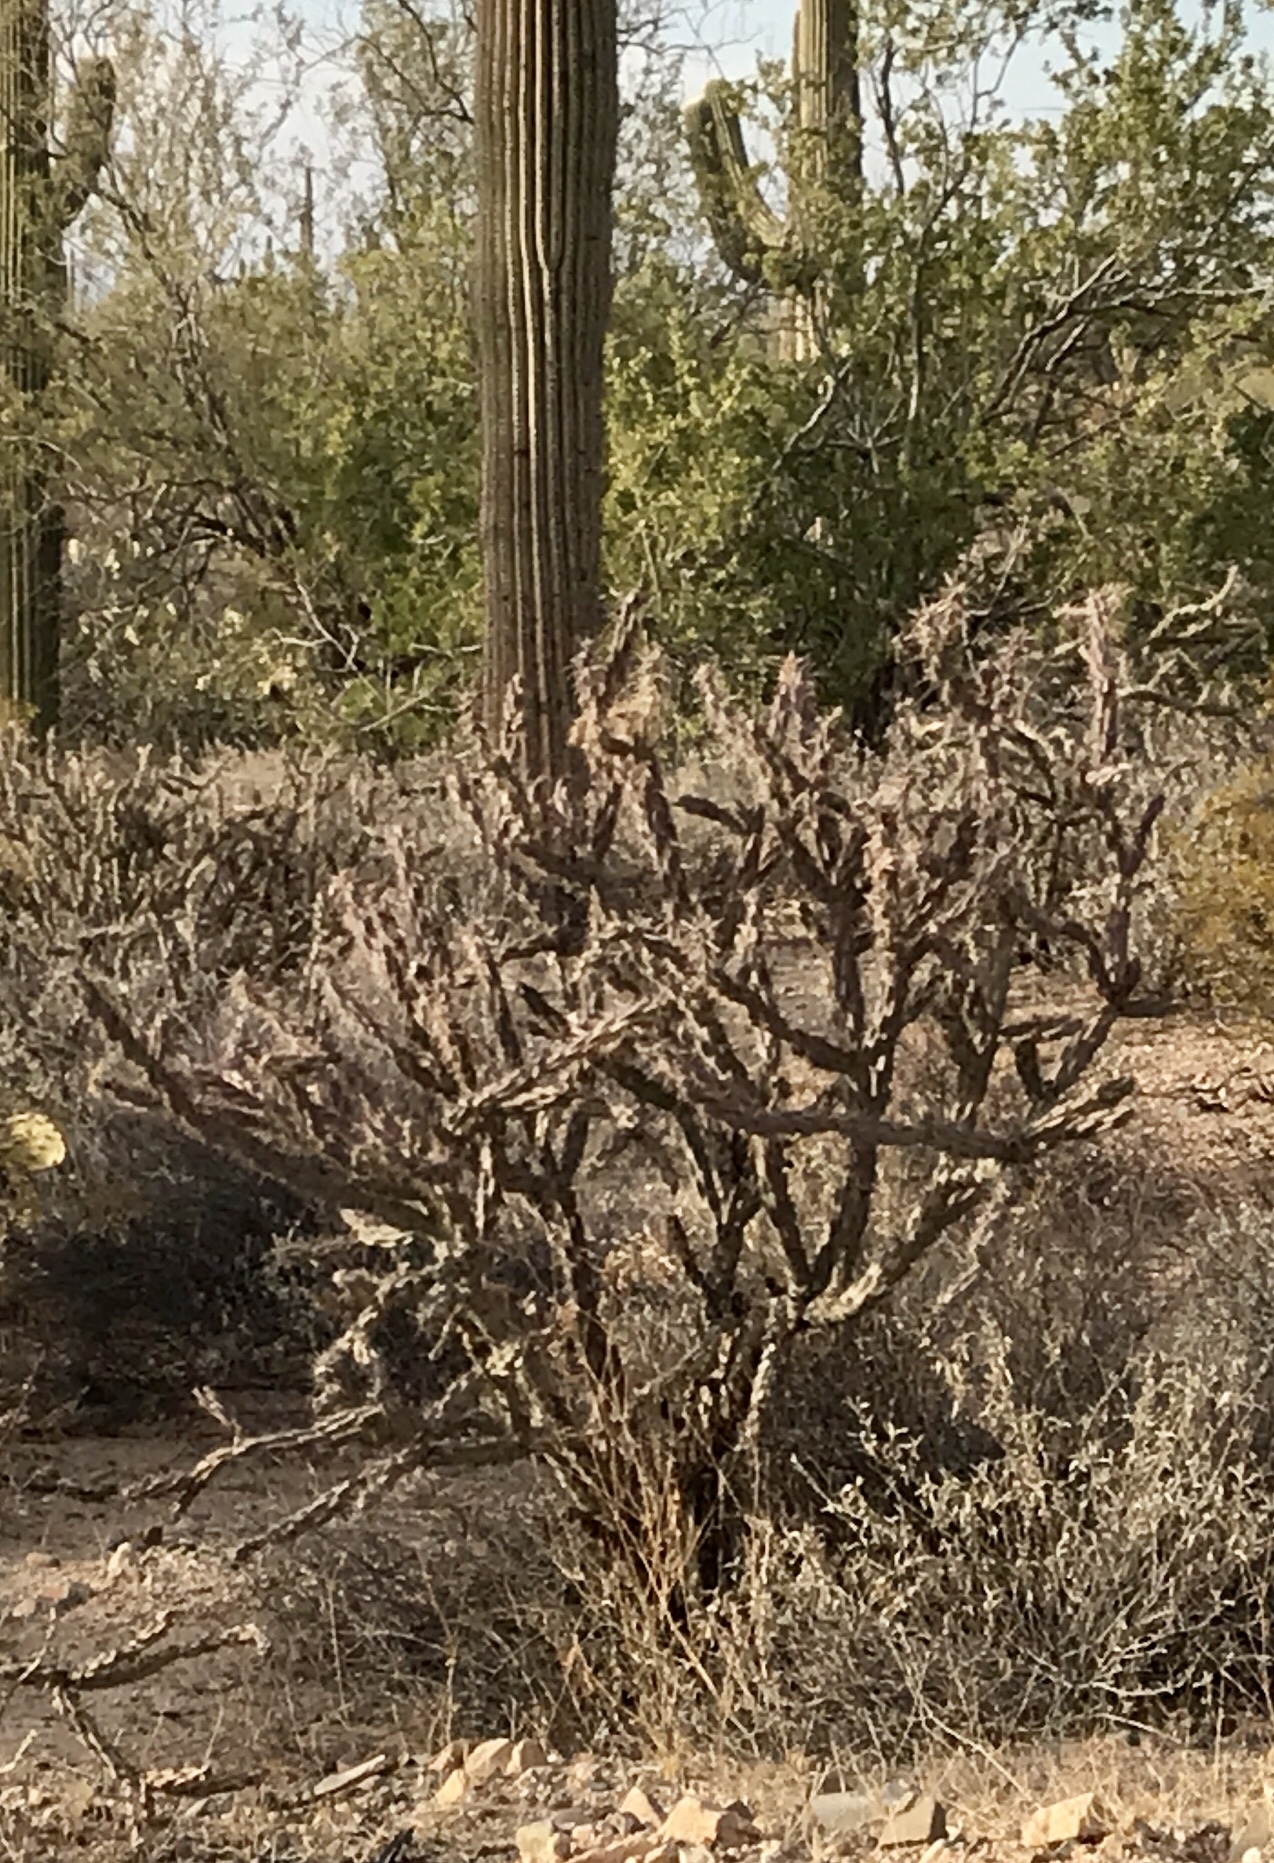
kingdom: Plantae
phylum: Tracheophyta
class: Magnoliopsida
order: Caryophyllales
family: Cactaceae
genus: Cylindropuntia
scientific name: Cylindropuntia acanthocarpa
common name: Buckhorn cholla
